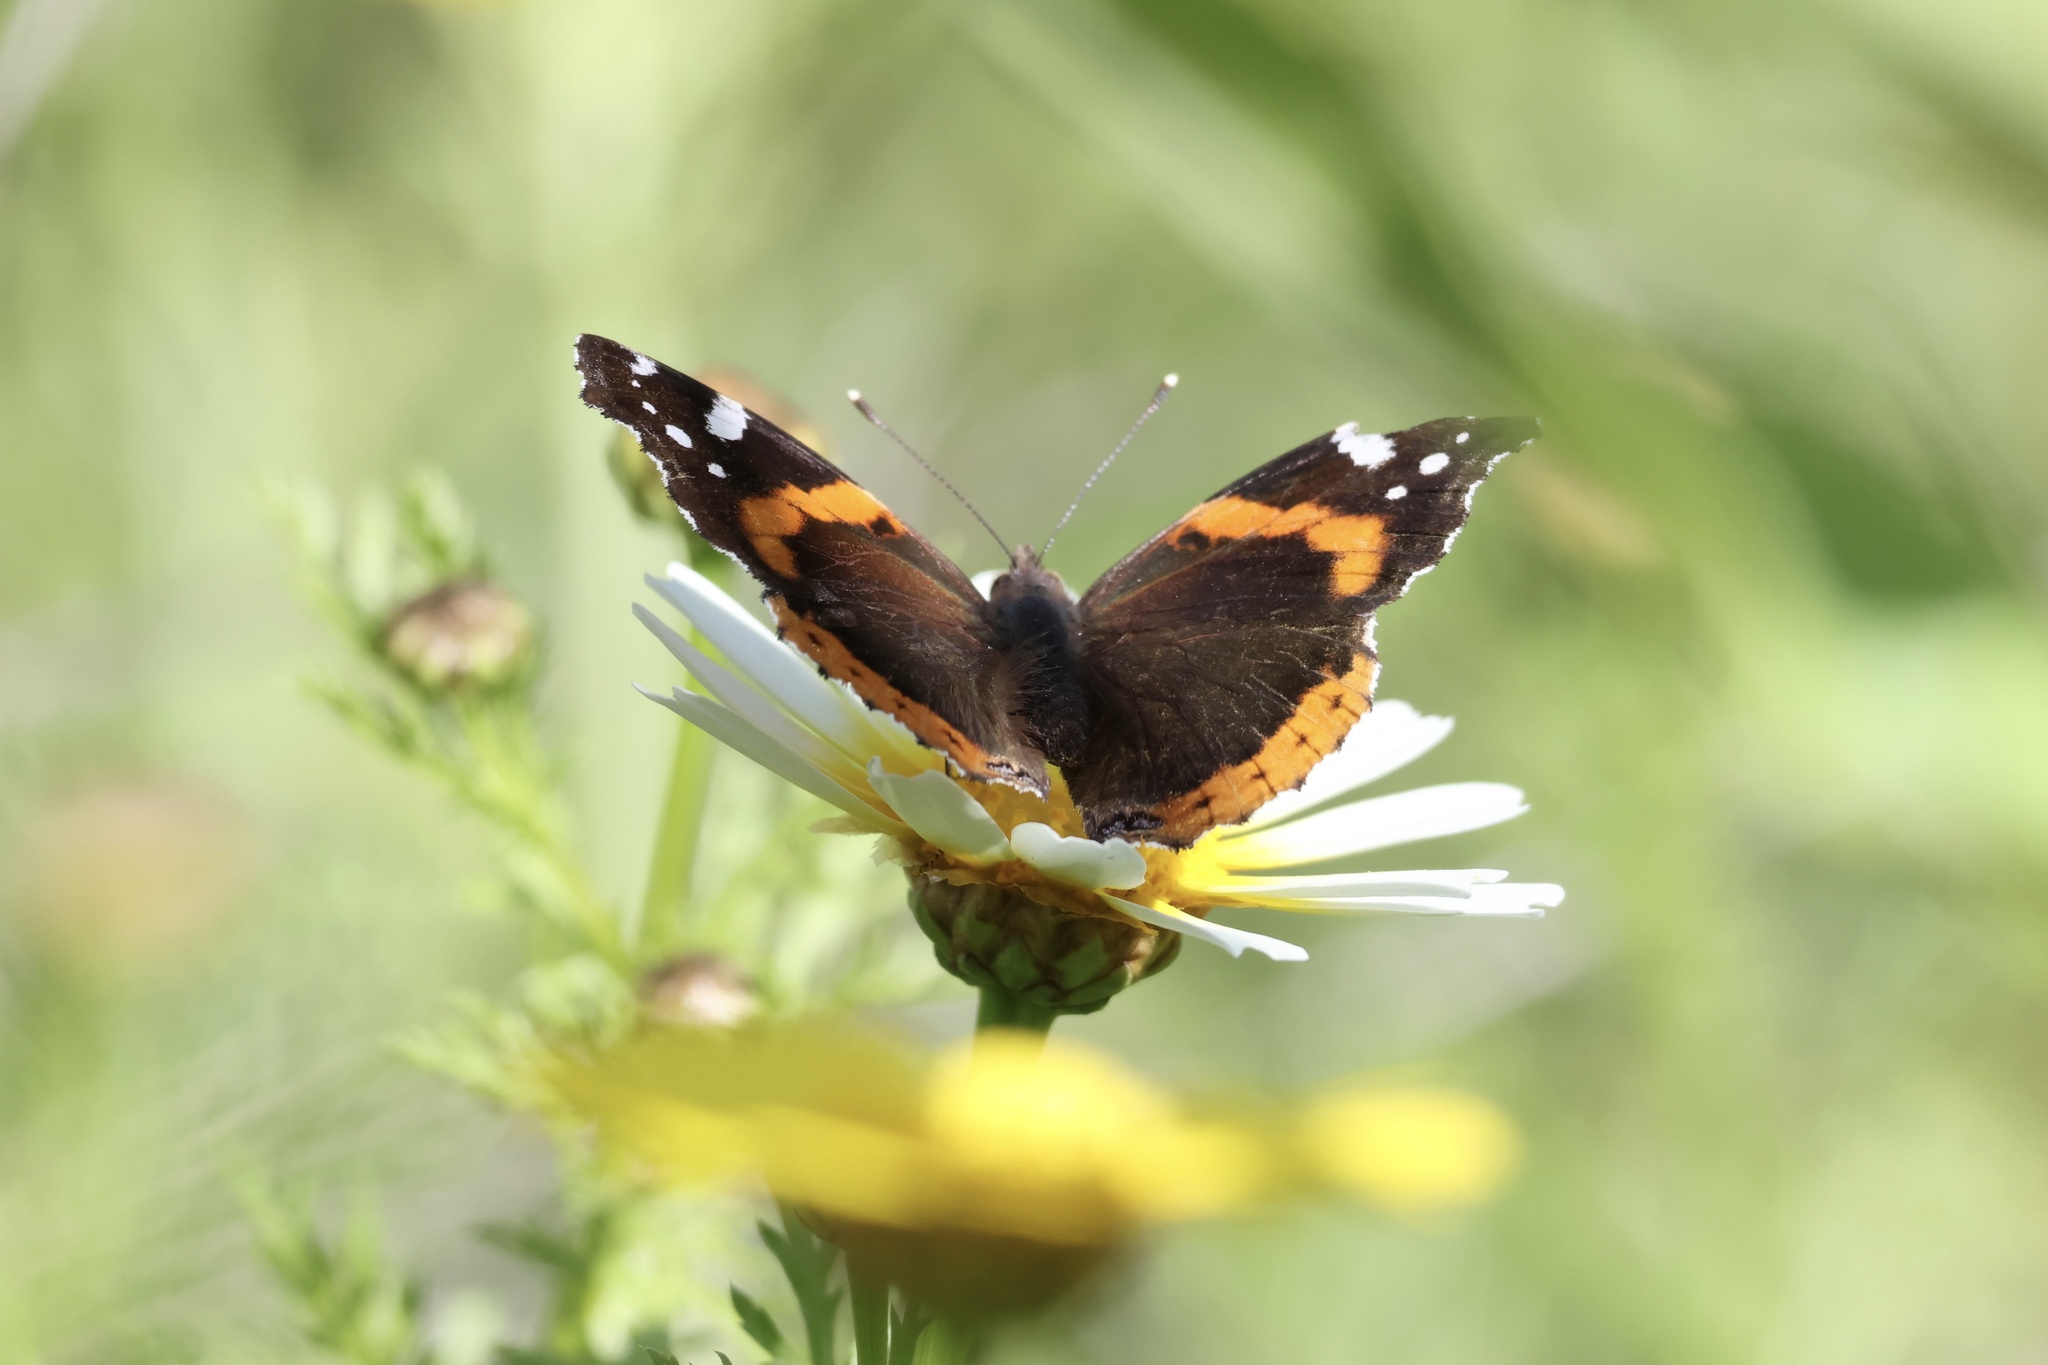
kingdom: Animalia
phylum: Arthropoda
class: Insecta
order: Lepidoptera
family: Nymphalidae
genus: Vanessa
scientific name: Vanessa atalanta
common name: Red admiral
